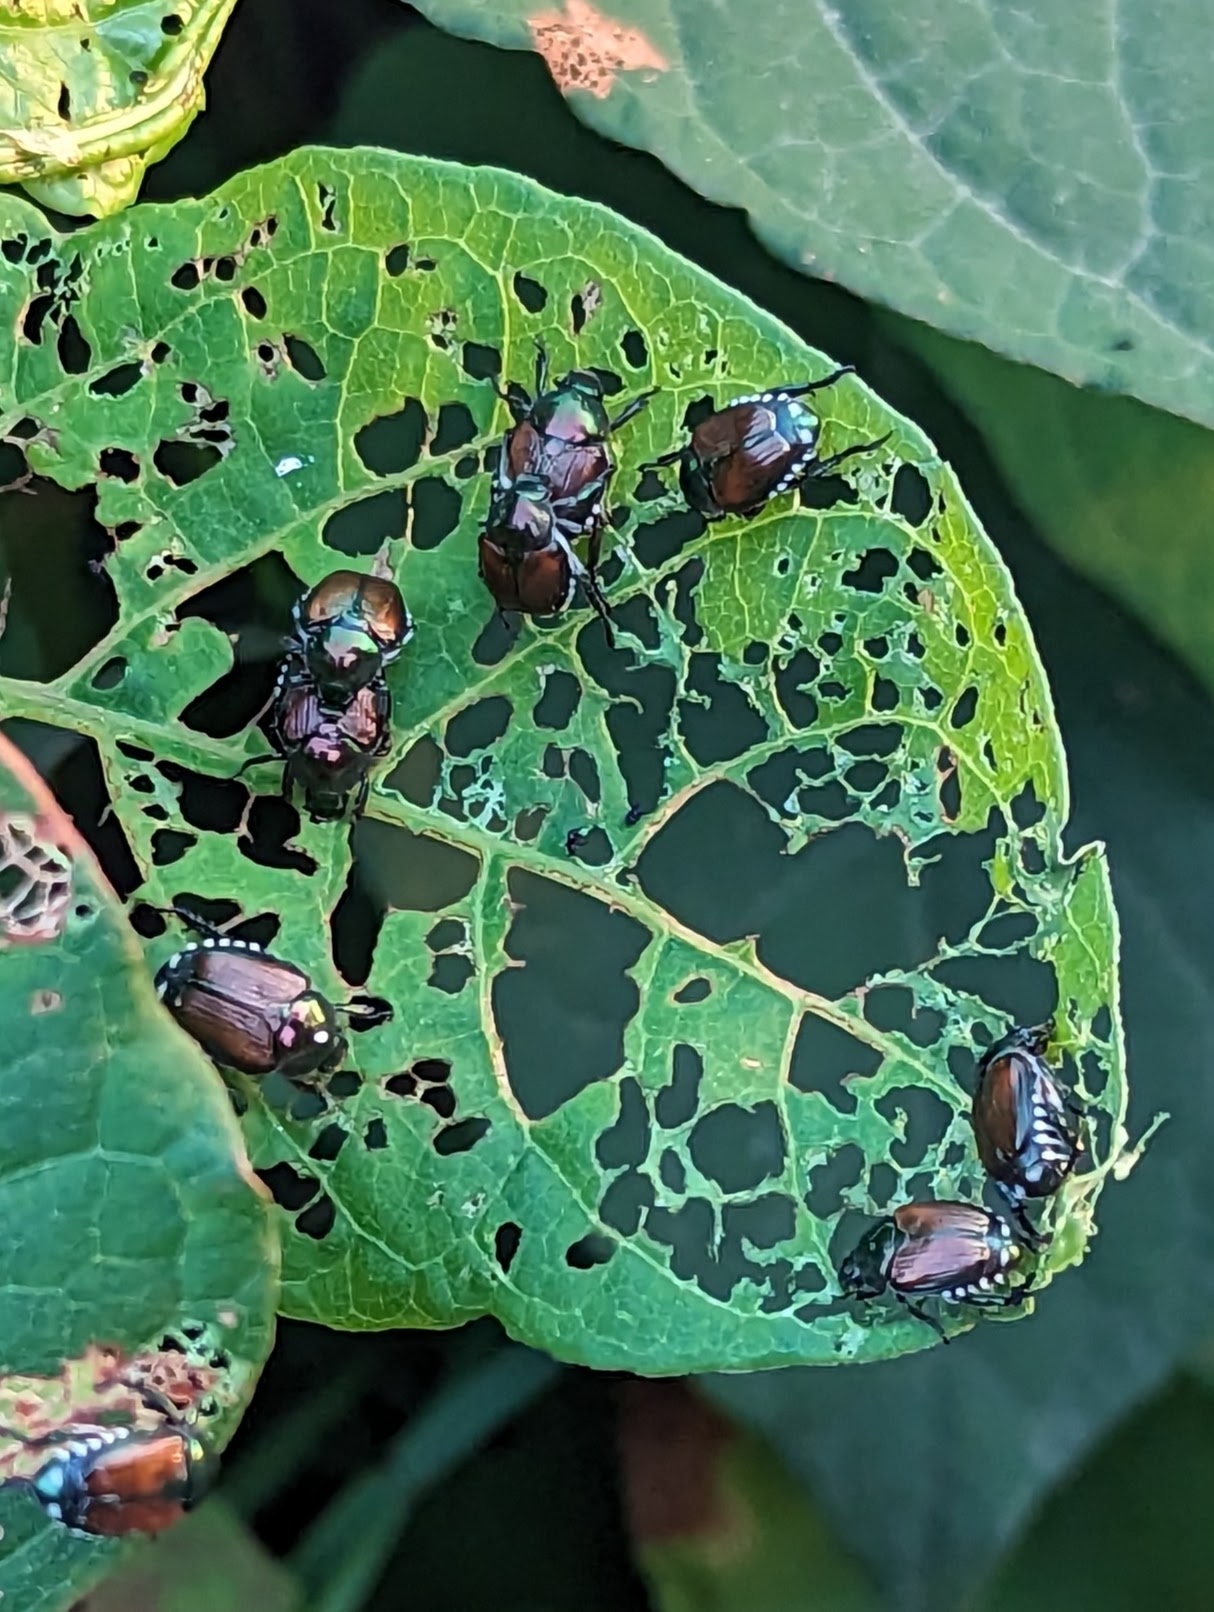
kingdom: Animalia
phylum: Arthropoda
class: Insecta
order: Coleoptera
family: Scarabaeidae
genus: Popillia
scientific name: Popillia japonica
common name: Japanese beetle
